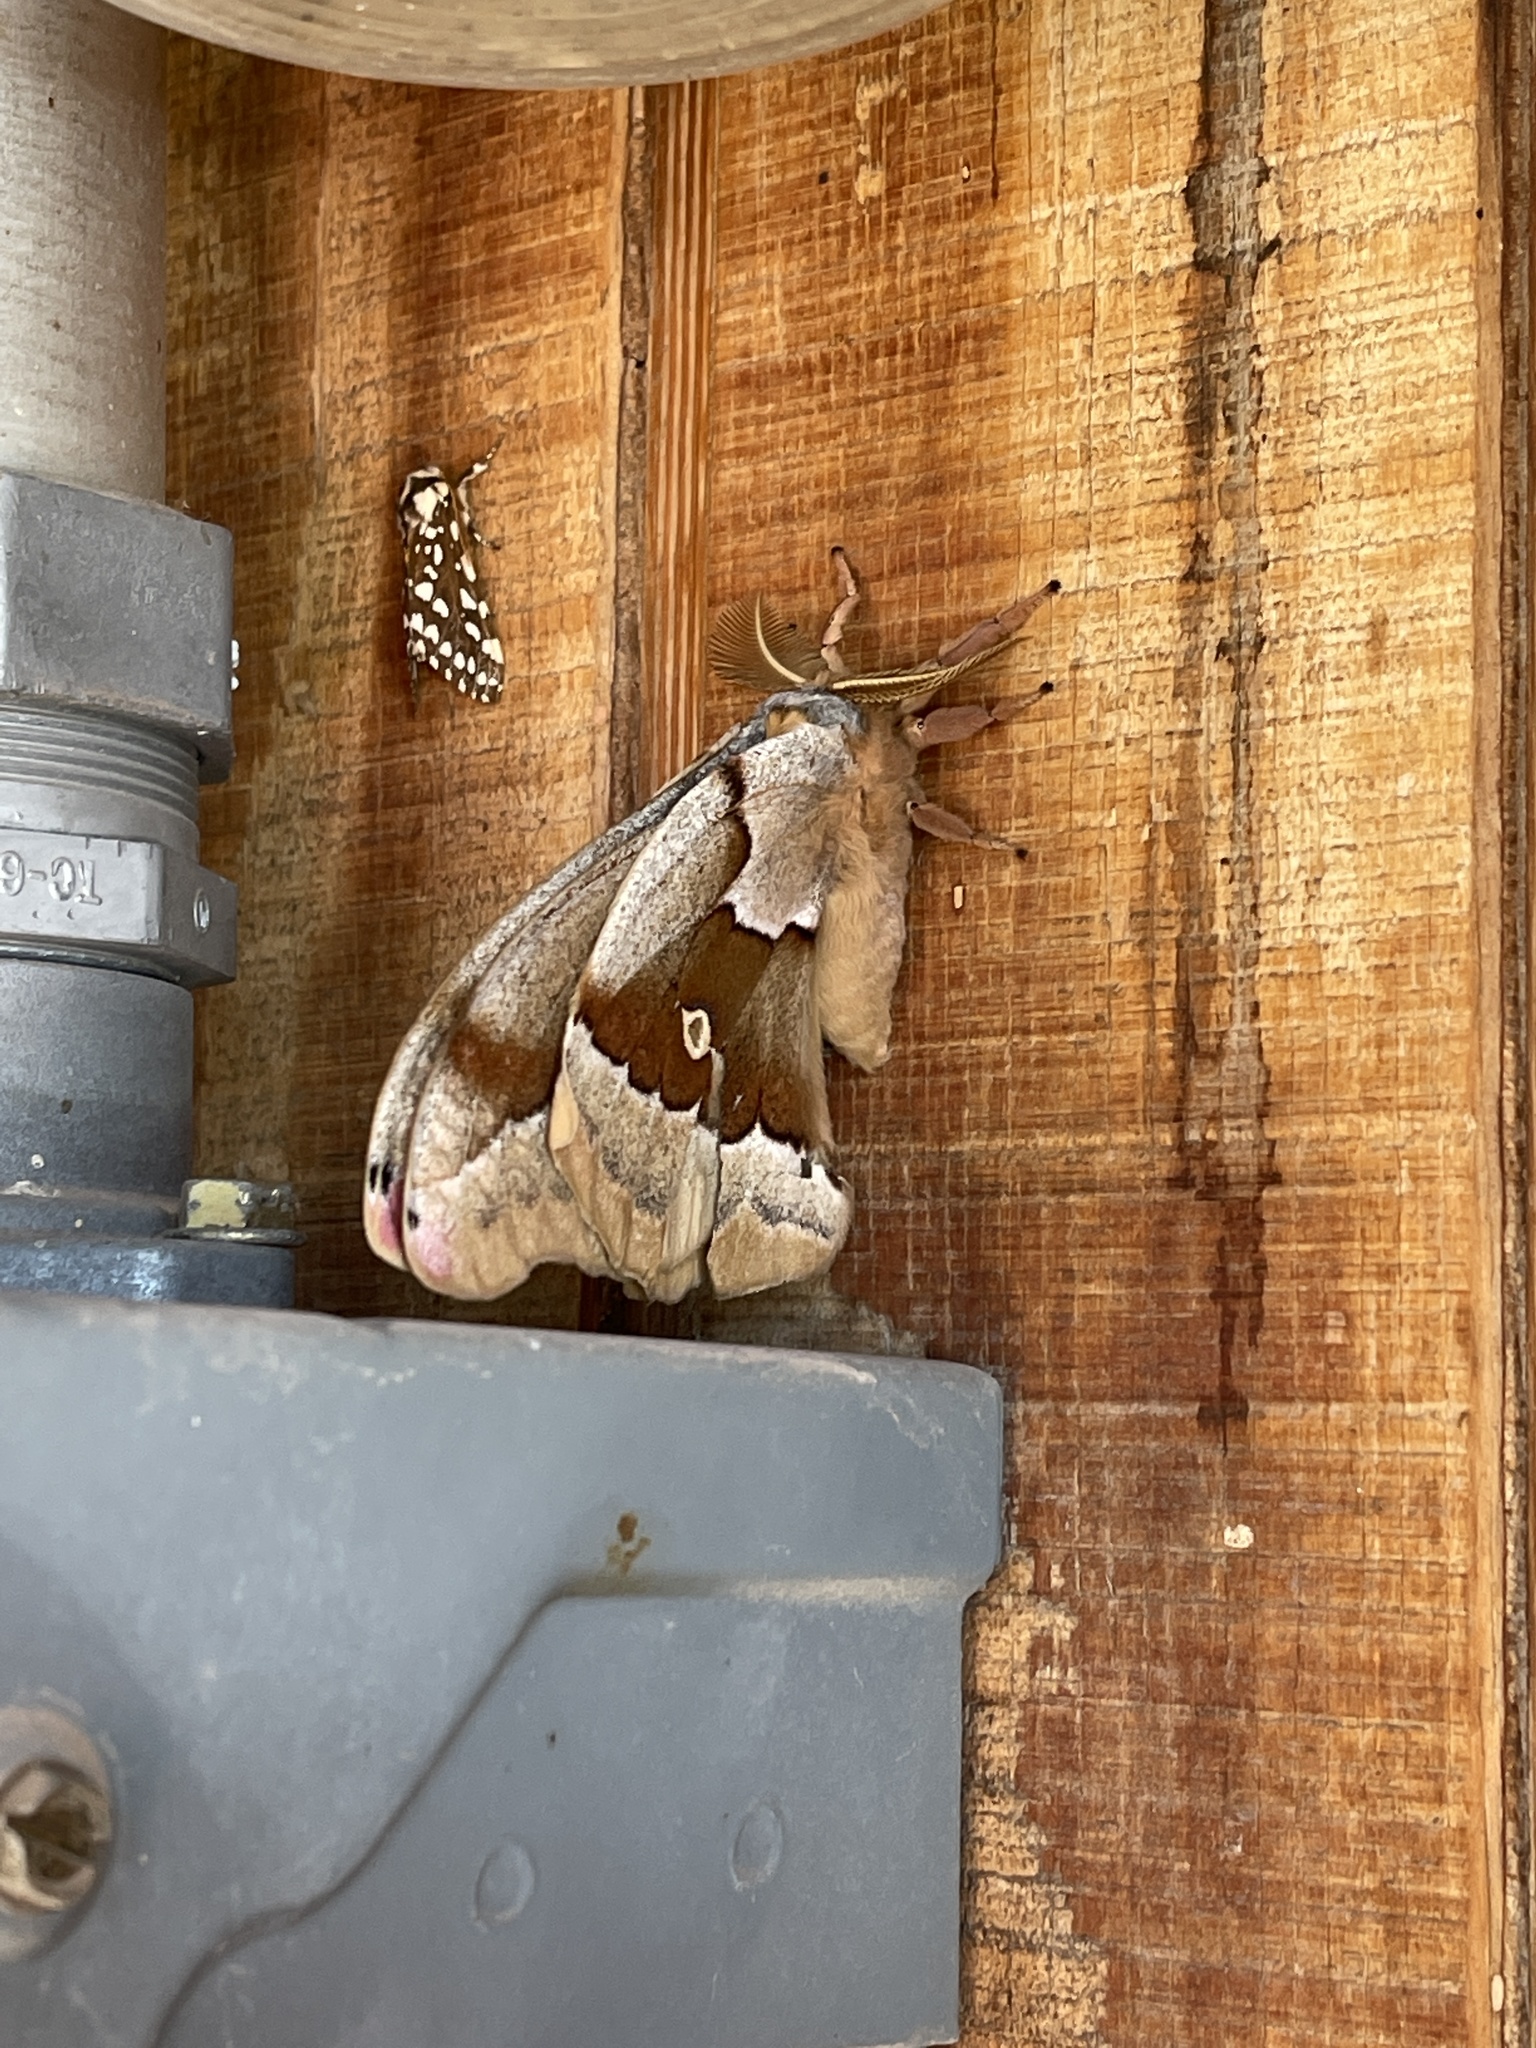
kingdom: Animalia
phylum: Arthropoda
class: Insecta
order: Lepidoptera
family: Saturniidae
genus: Antheraea
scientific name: Antheraea oculea
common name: Arizona polyphemus moth
